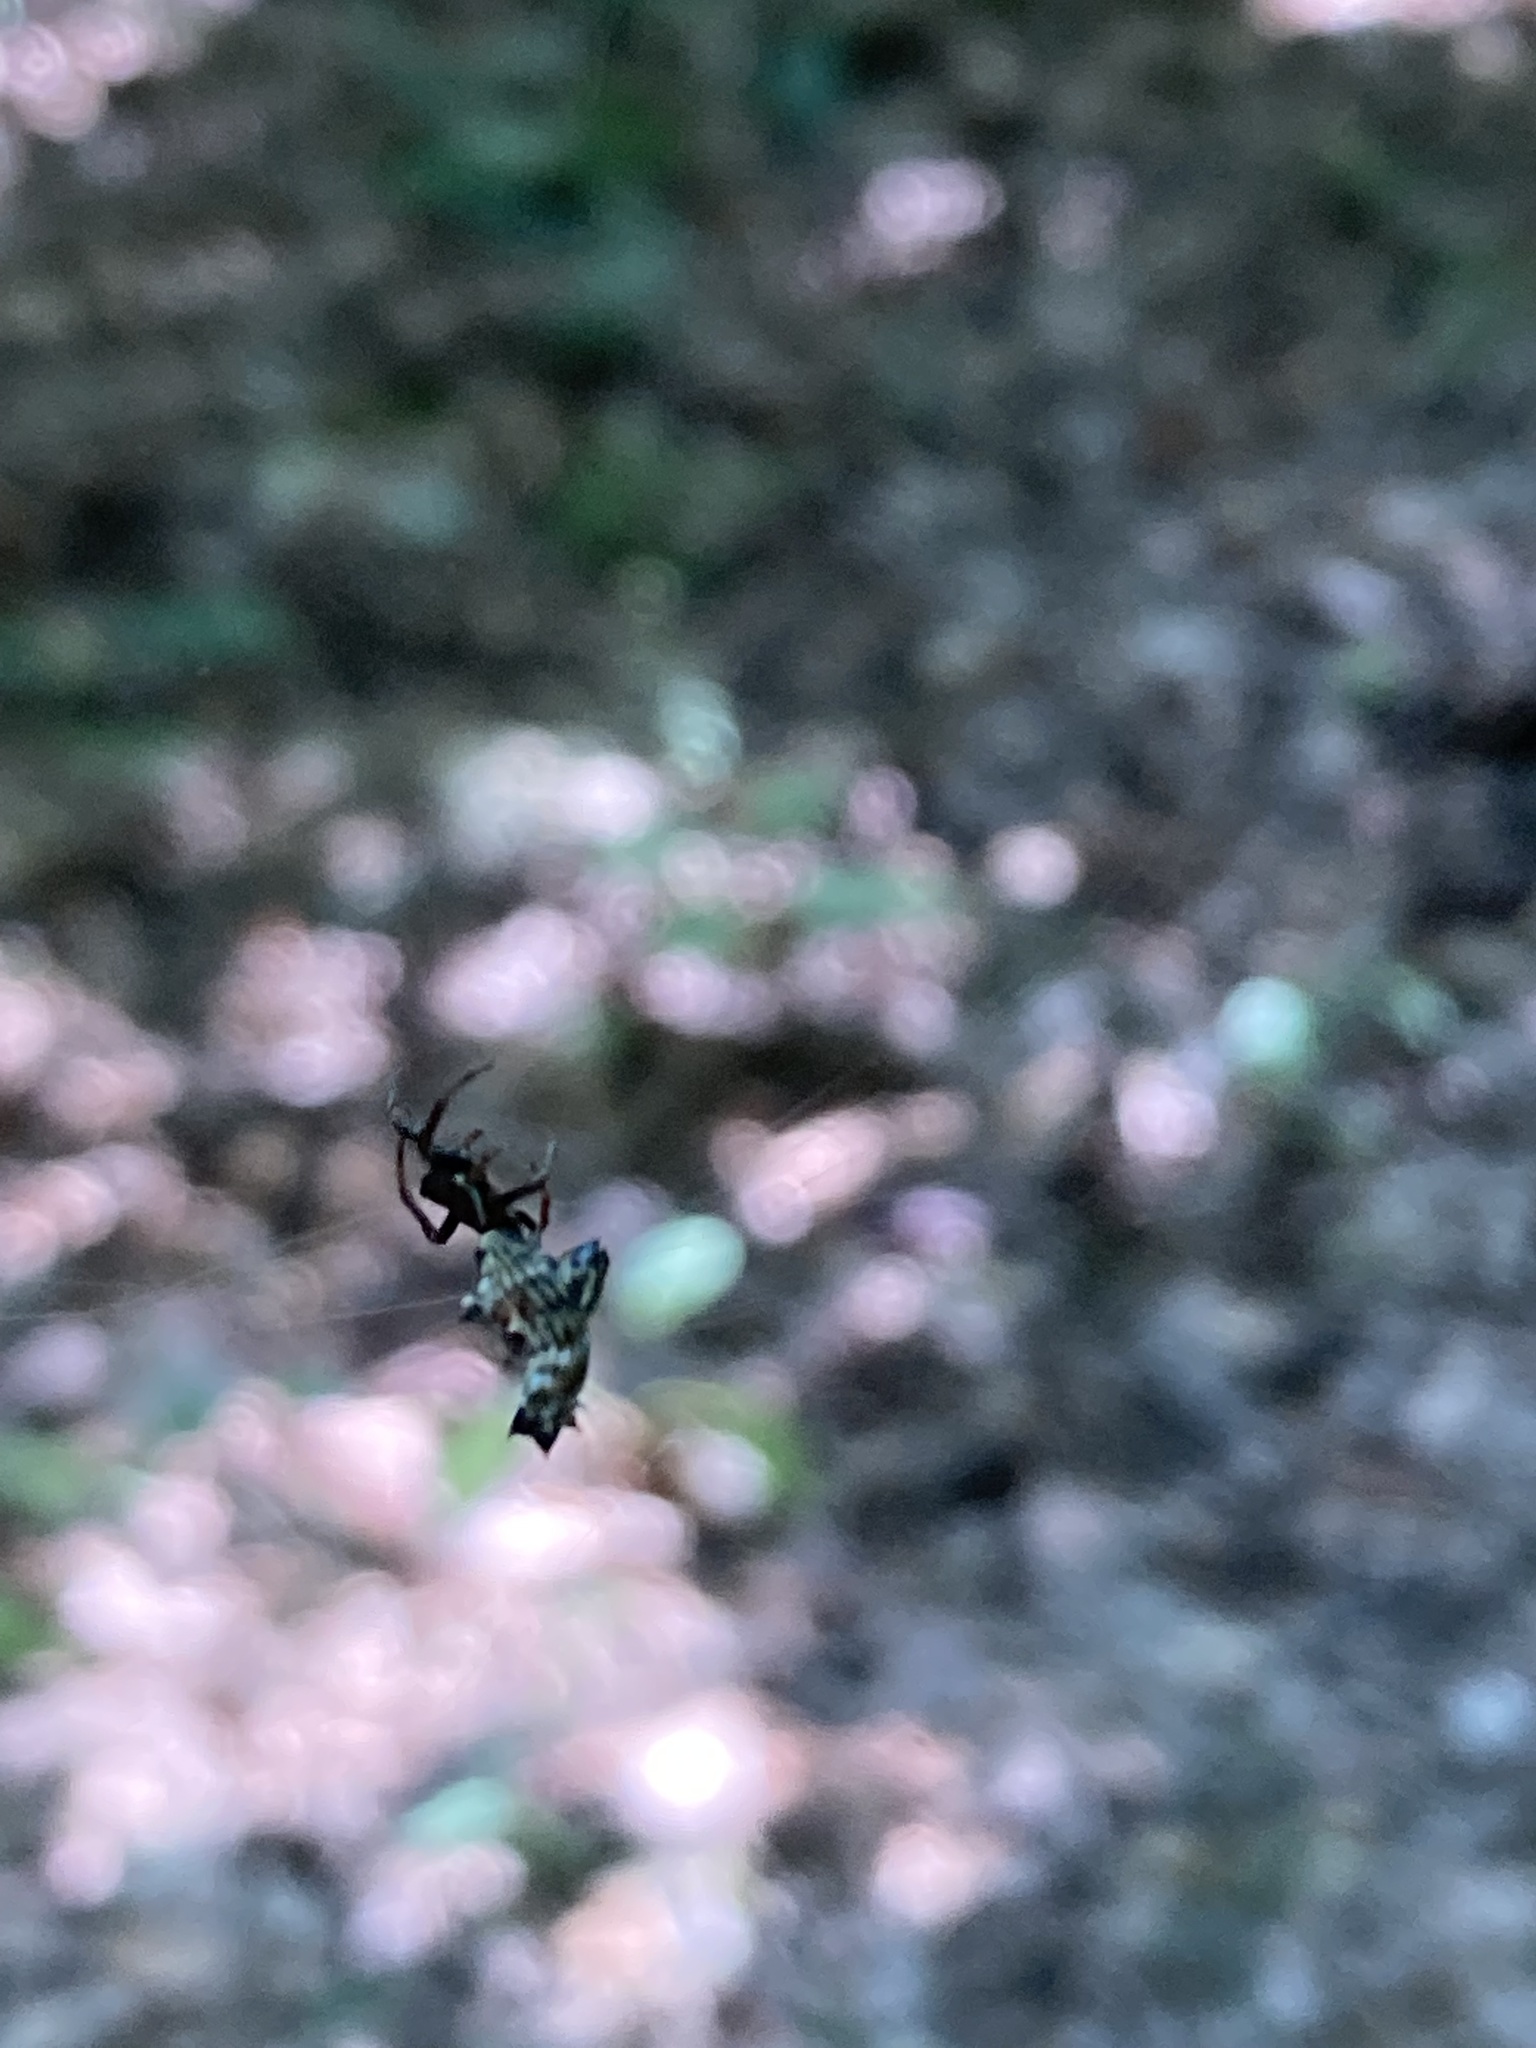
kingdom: Animalia
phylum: Arthropoda
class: Arachnida
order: Araneae
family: Araneidae
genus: Micrathena
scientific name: Micrathena gracilis
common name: Orb weavers
